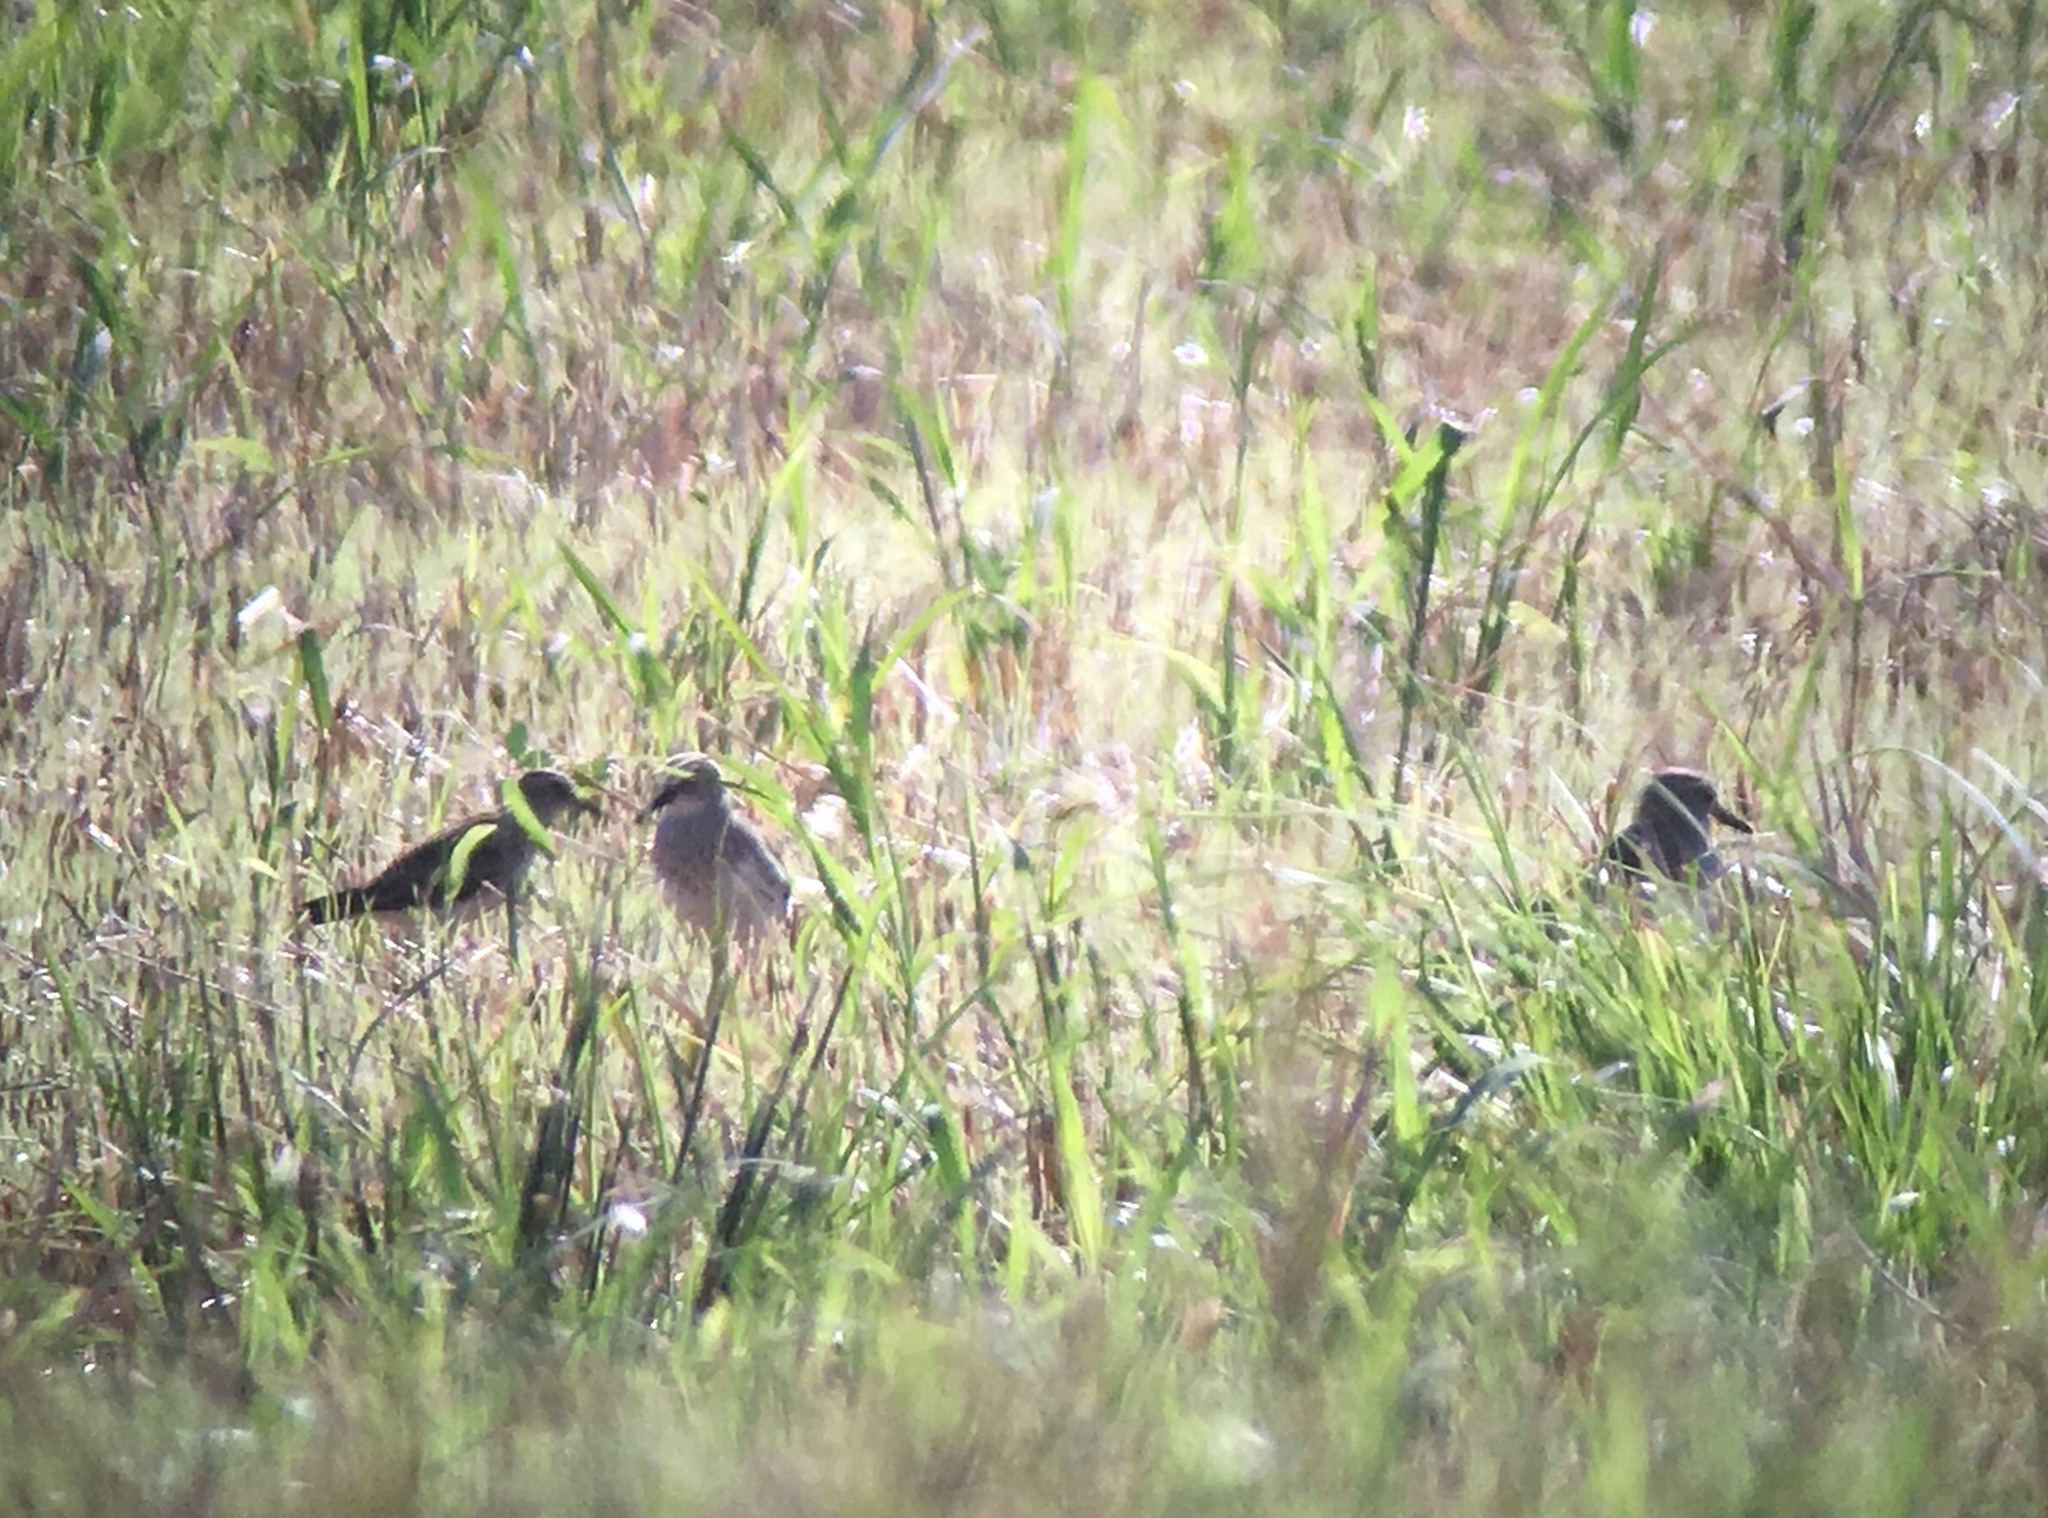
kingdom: Animalia
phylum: Chordata
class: Aves
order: Charadriiformes
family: Scolopacidae
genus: Calidris
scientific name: Calidris minutilla
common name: Least sandpiper
